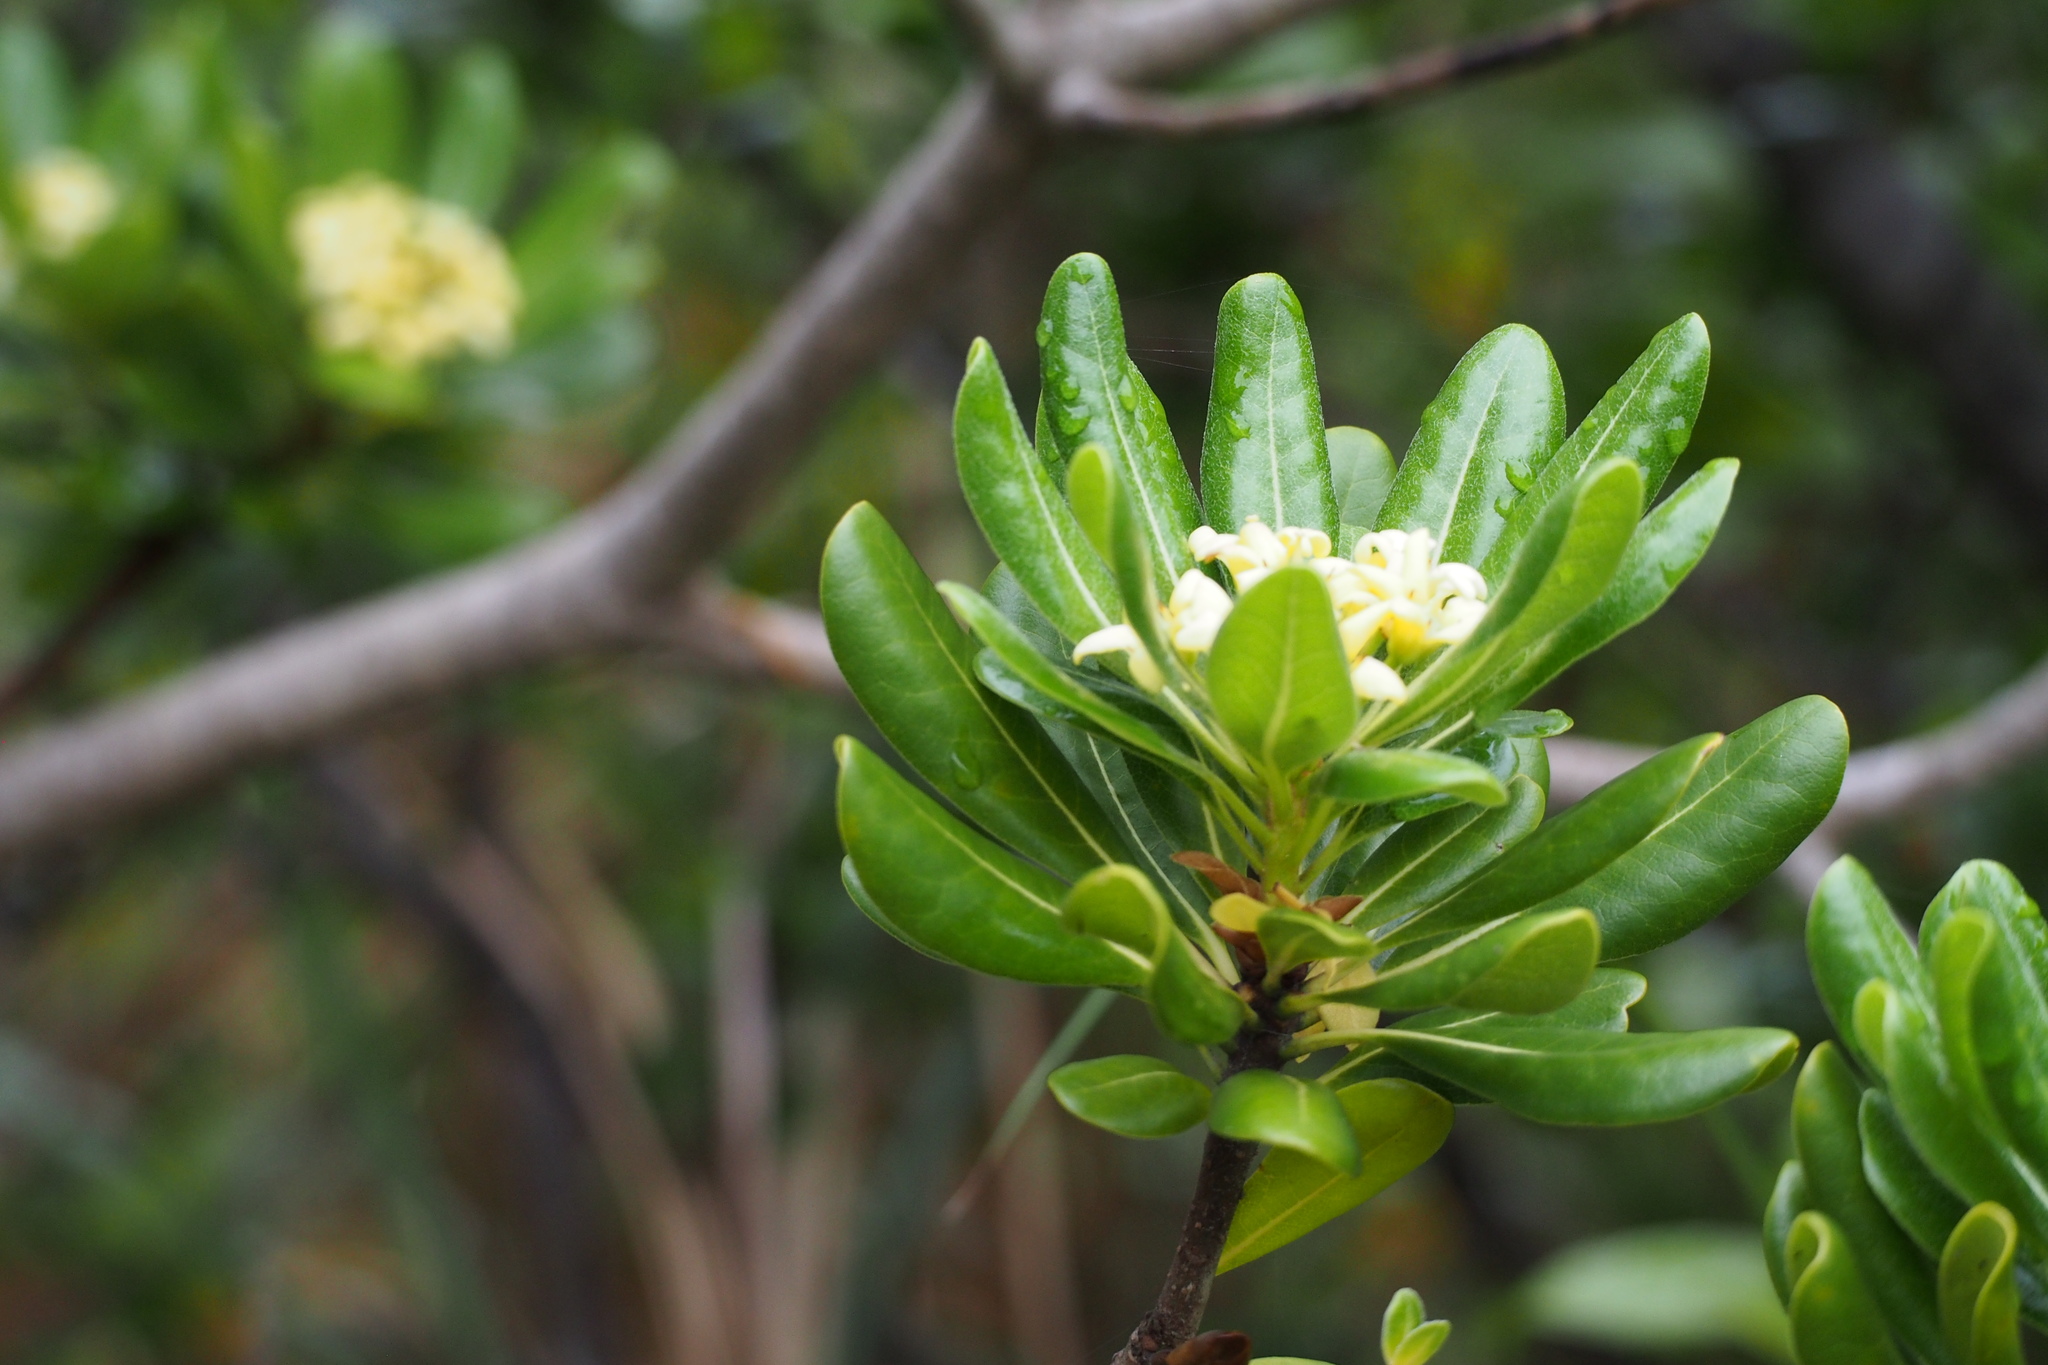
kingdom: Plantae
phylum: Tracheophyta
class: Magnoliopsida
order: Apiales
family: Pittosporaceae
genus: Pittosporum
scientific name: Pittosporum tobira
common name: Japanese cheesewood
